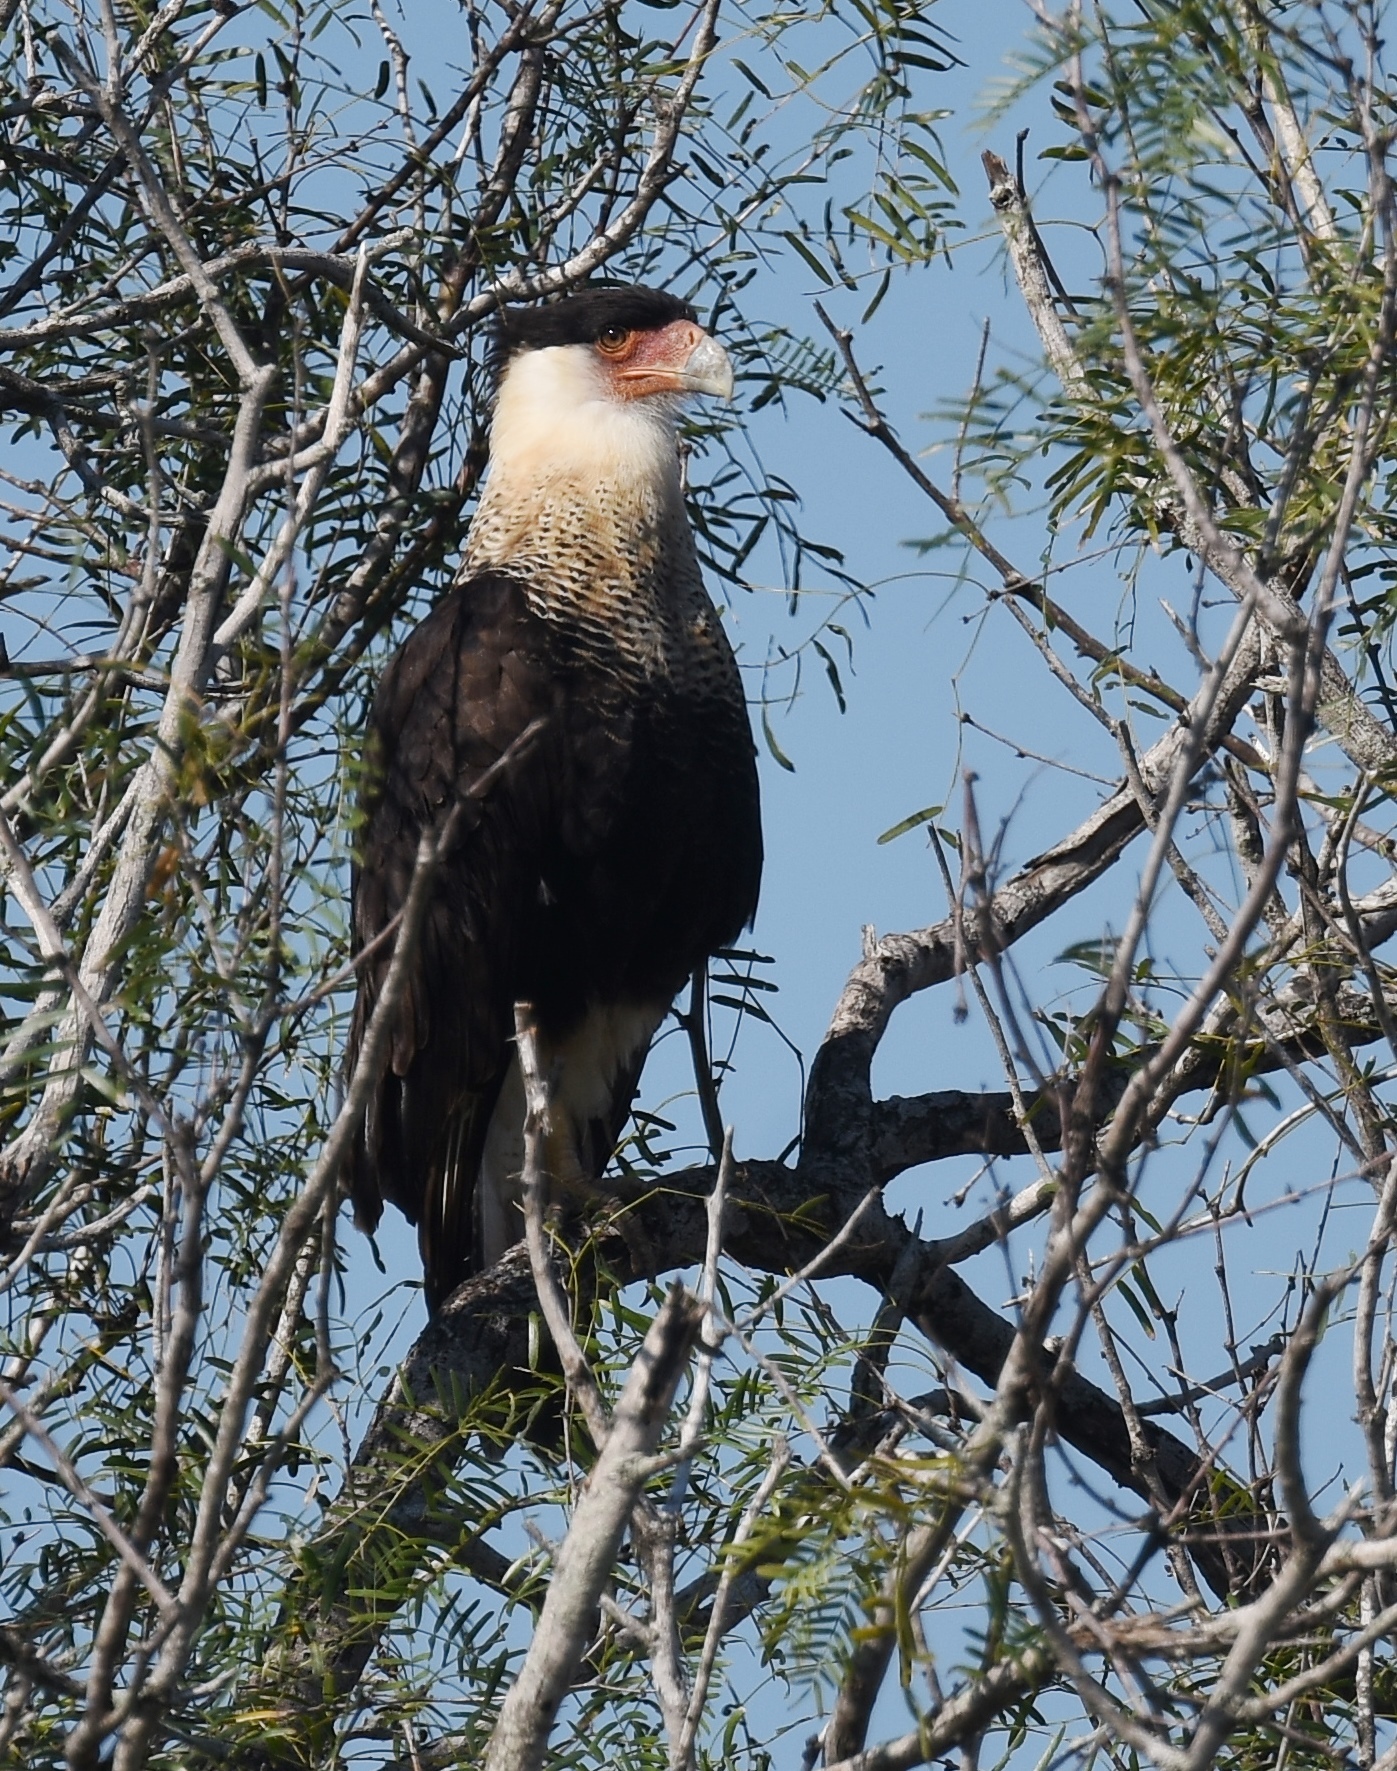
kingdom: Animalia
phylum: Chordata
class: Aves
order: Falconiformes
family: Falconidae
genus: Caracara
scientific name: Caracara plancus
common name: Southern caracara
